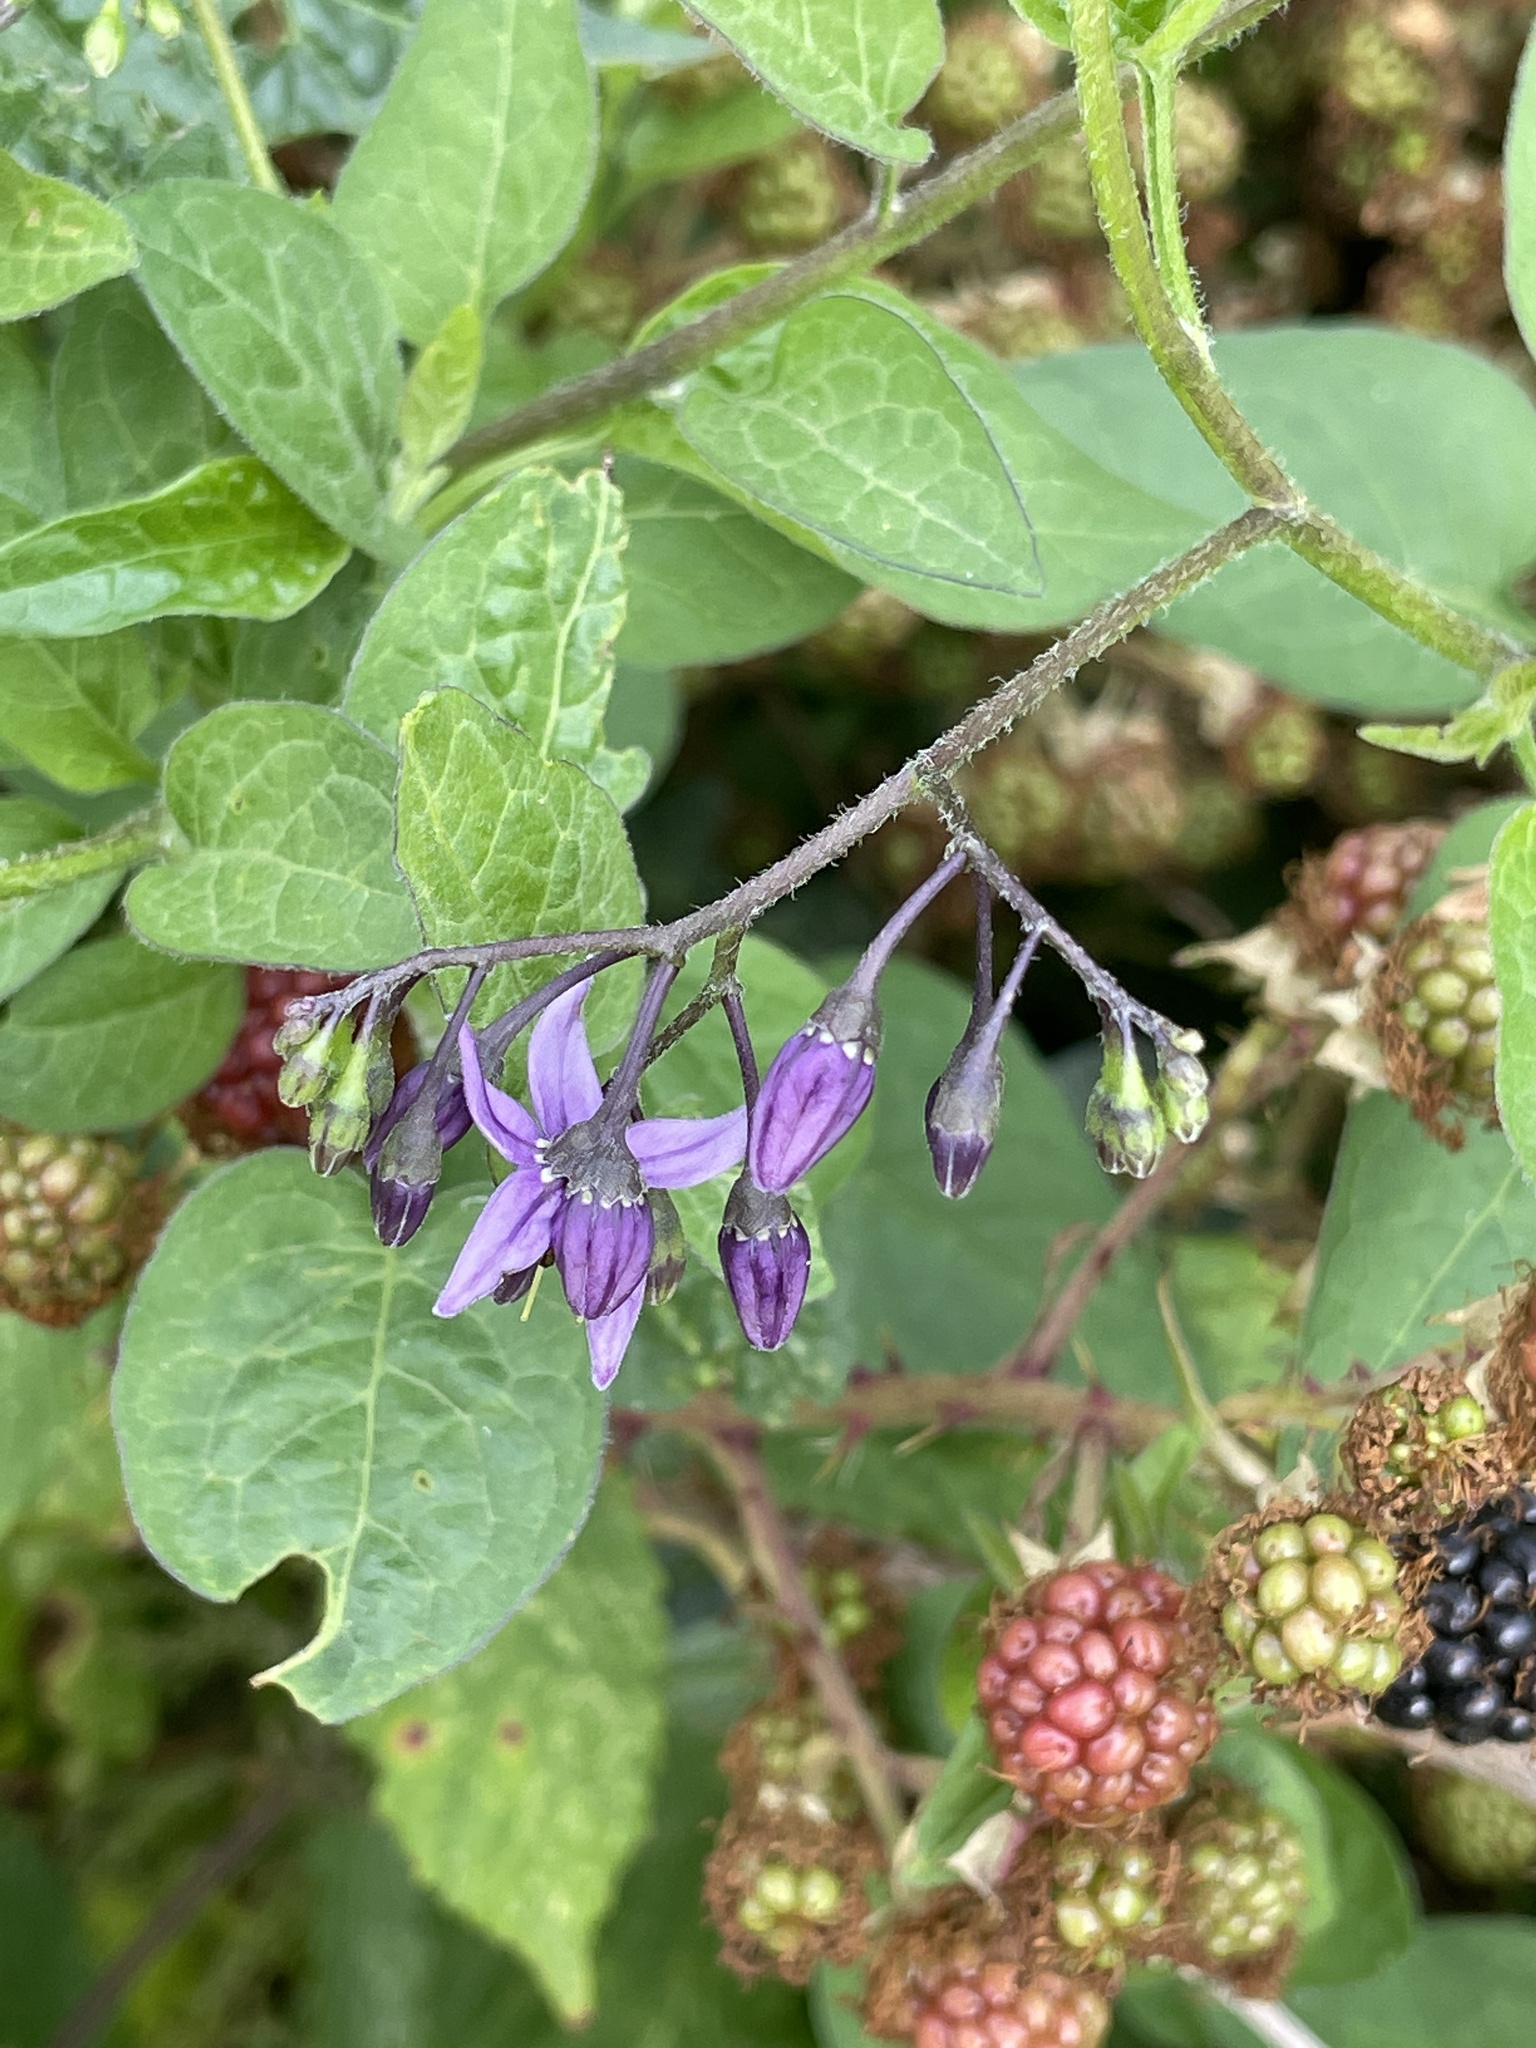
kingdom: Plantae
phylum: Tracheophyta
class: Magnoliopsida
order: Solanales
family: Solanaceae
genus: Solanum
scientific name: Solanum dulcamara
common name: Climbing nightshade
